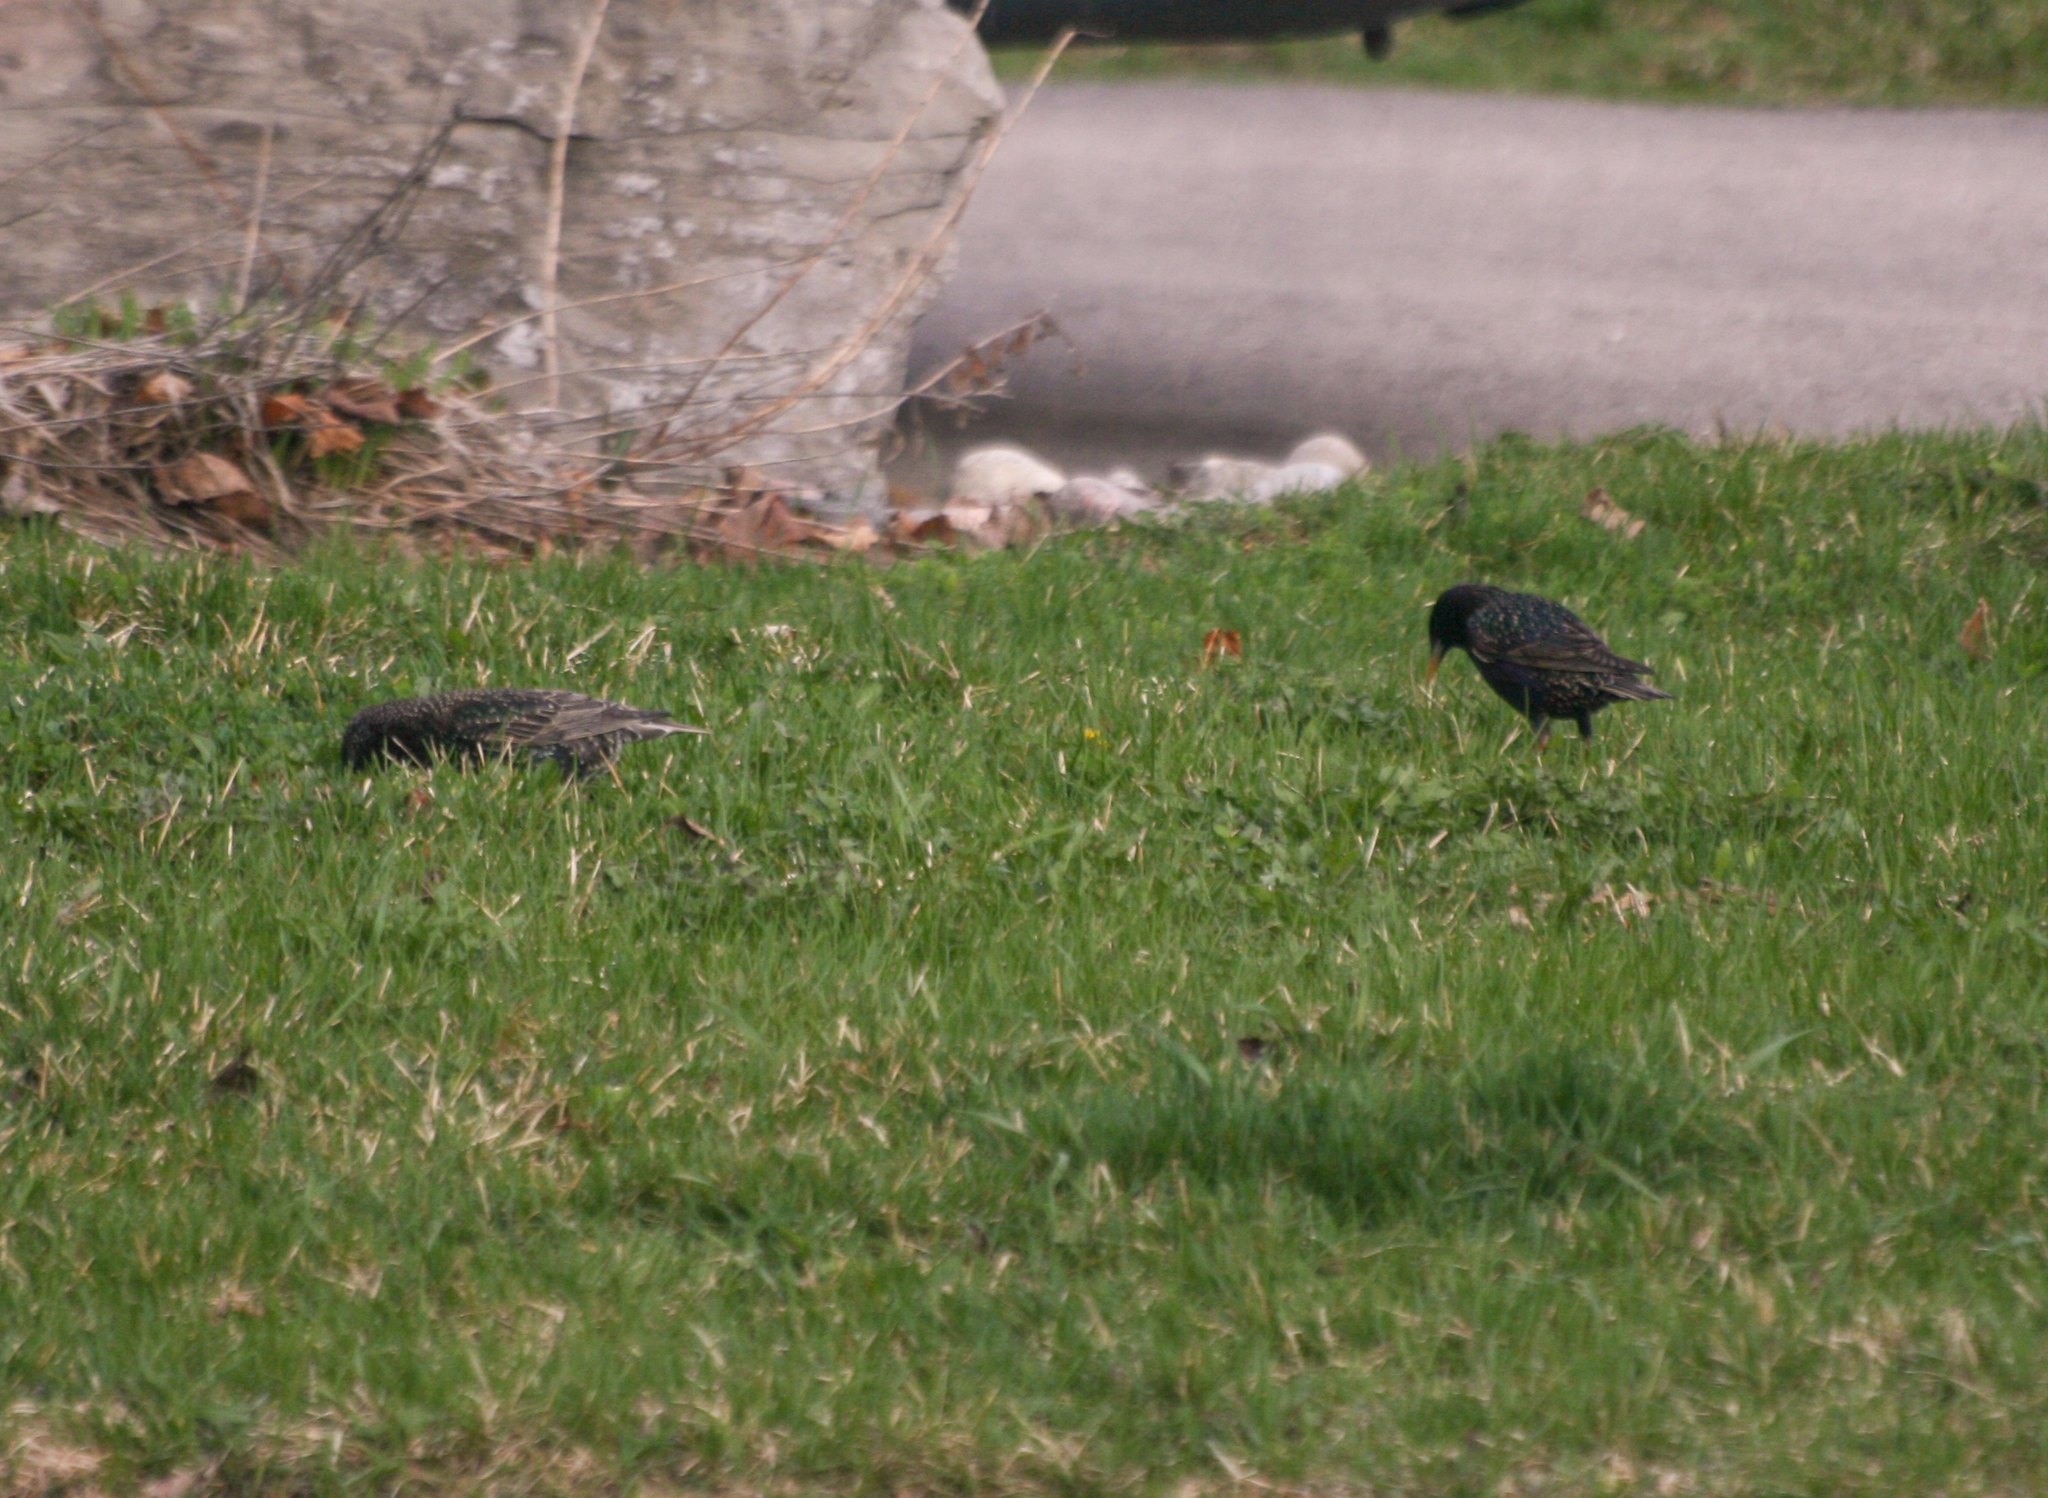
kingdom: Animalia
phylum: Chordata
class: Aves
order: Passeriformes
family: Sturnidae
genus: Sturnus
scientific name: Sturnus vulgaris
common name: Common starling
